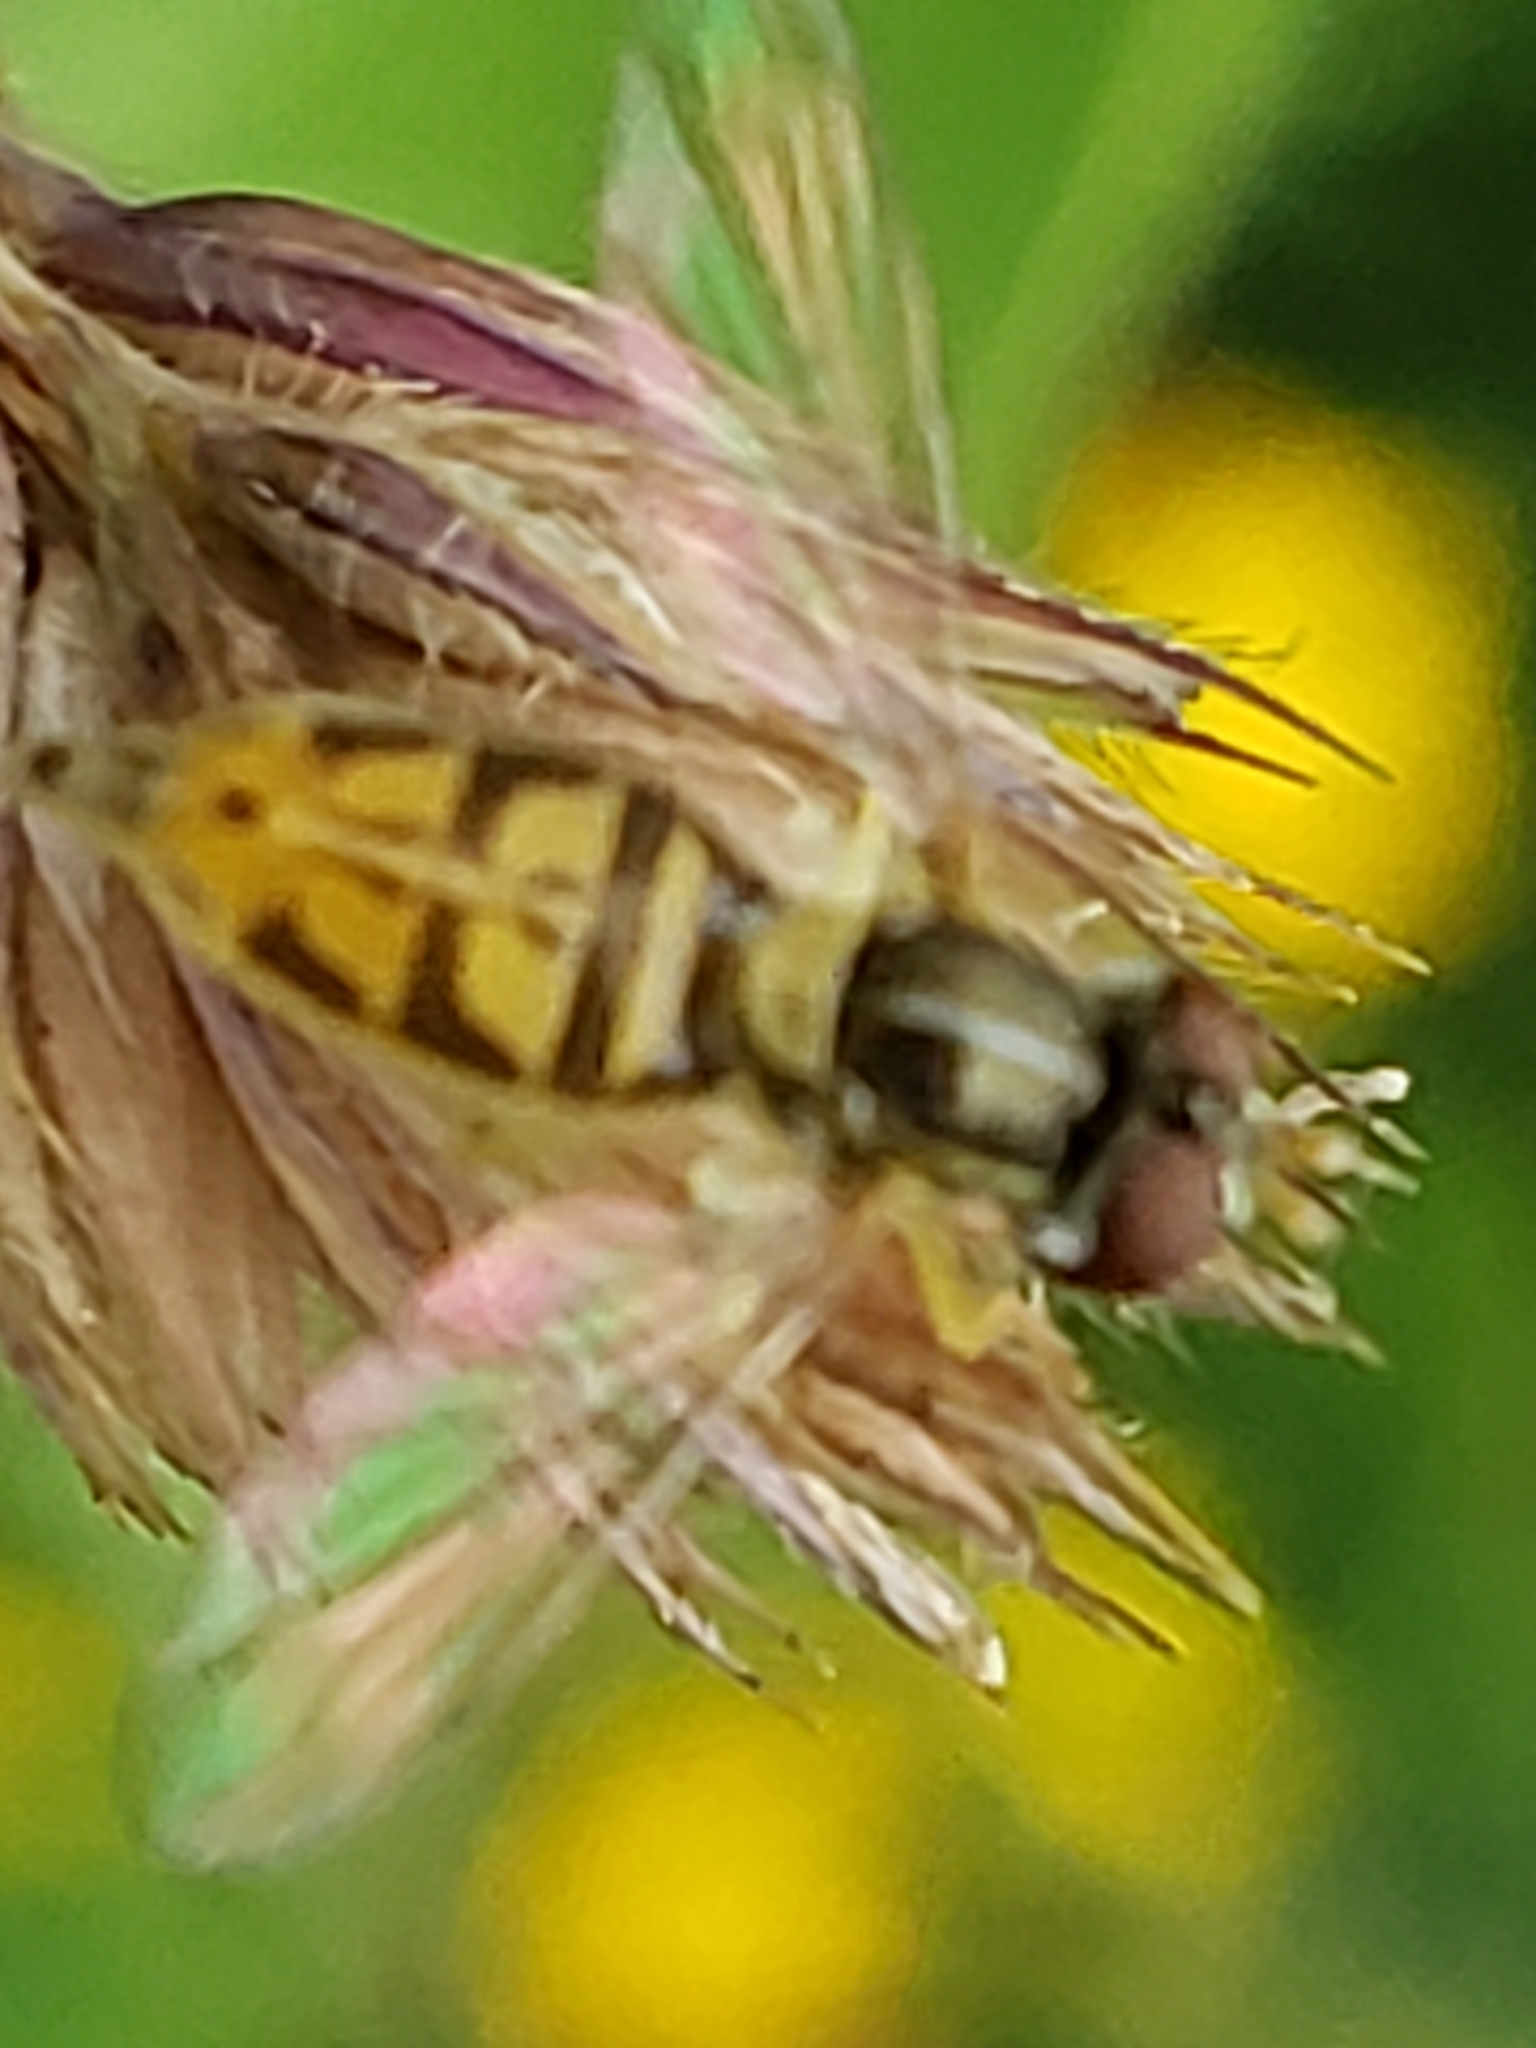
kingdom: Animalia
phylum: Arthropoda
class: Insecta
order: Diptera
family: Syrphidae
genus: Toxomerus
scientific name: Toxomerus marginatus
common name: Syrphid fly
